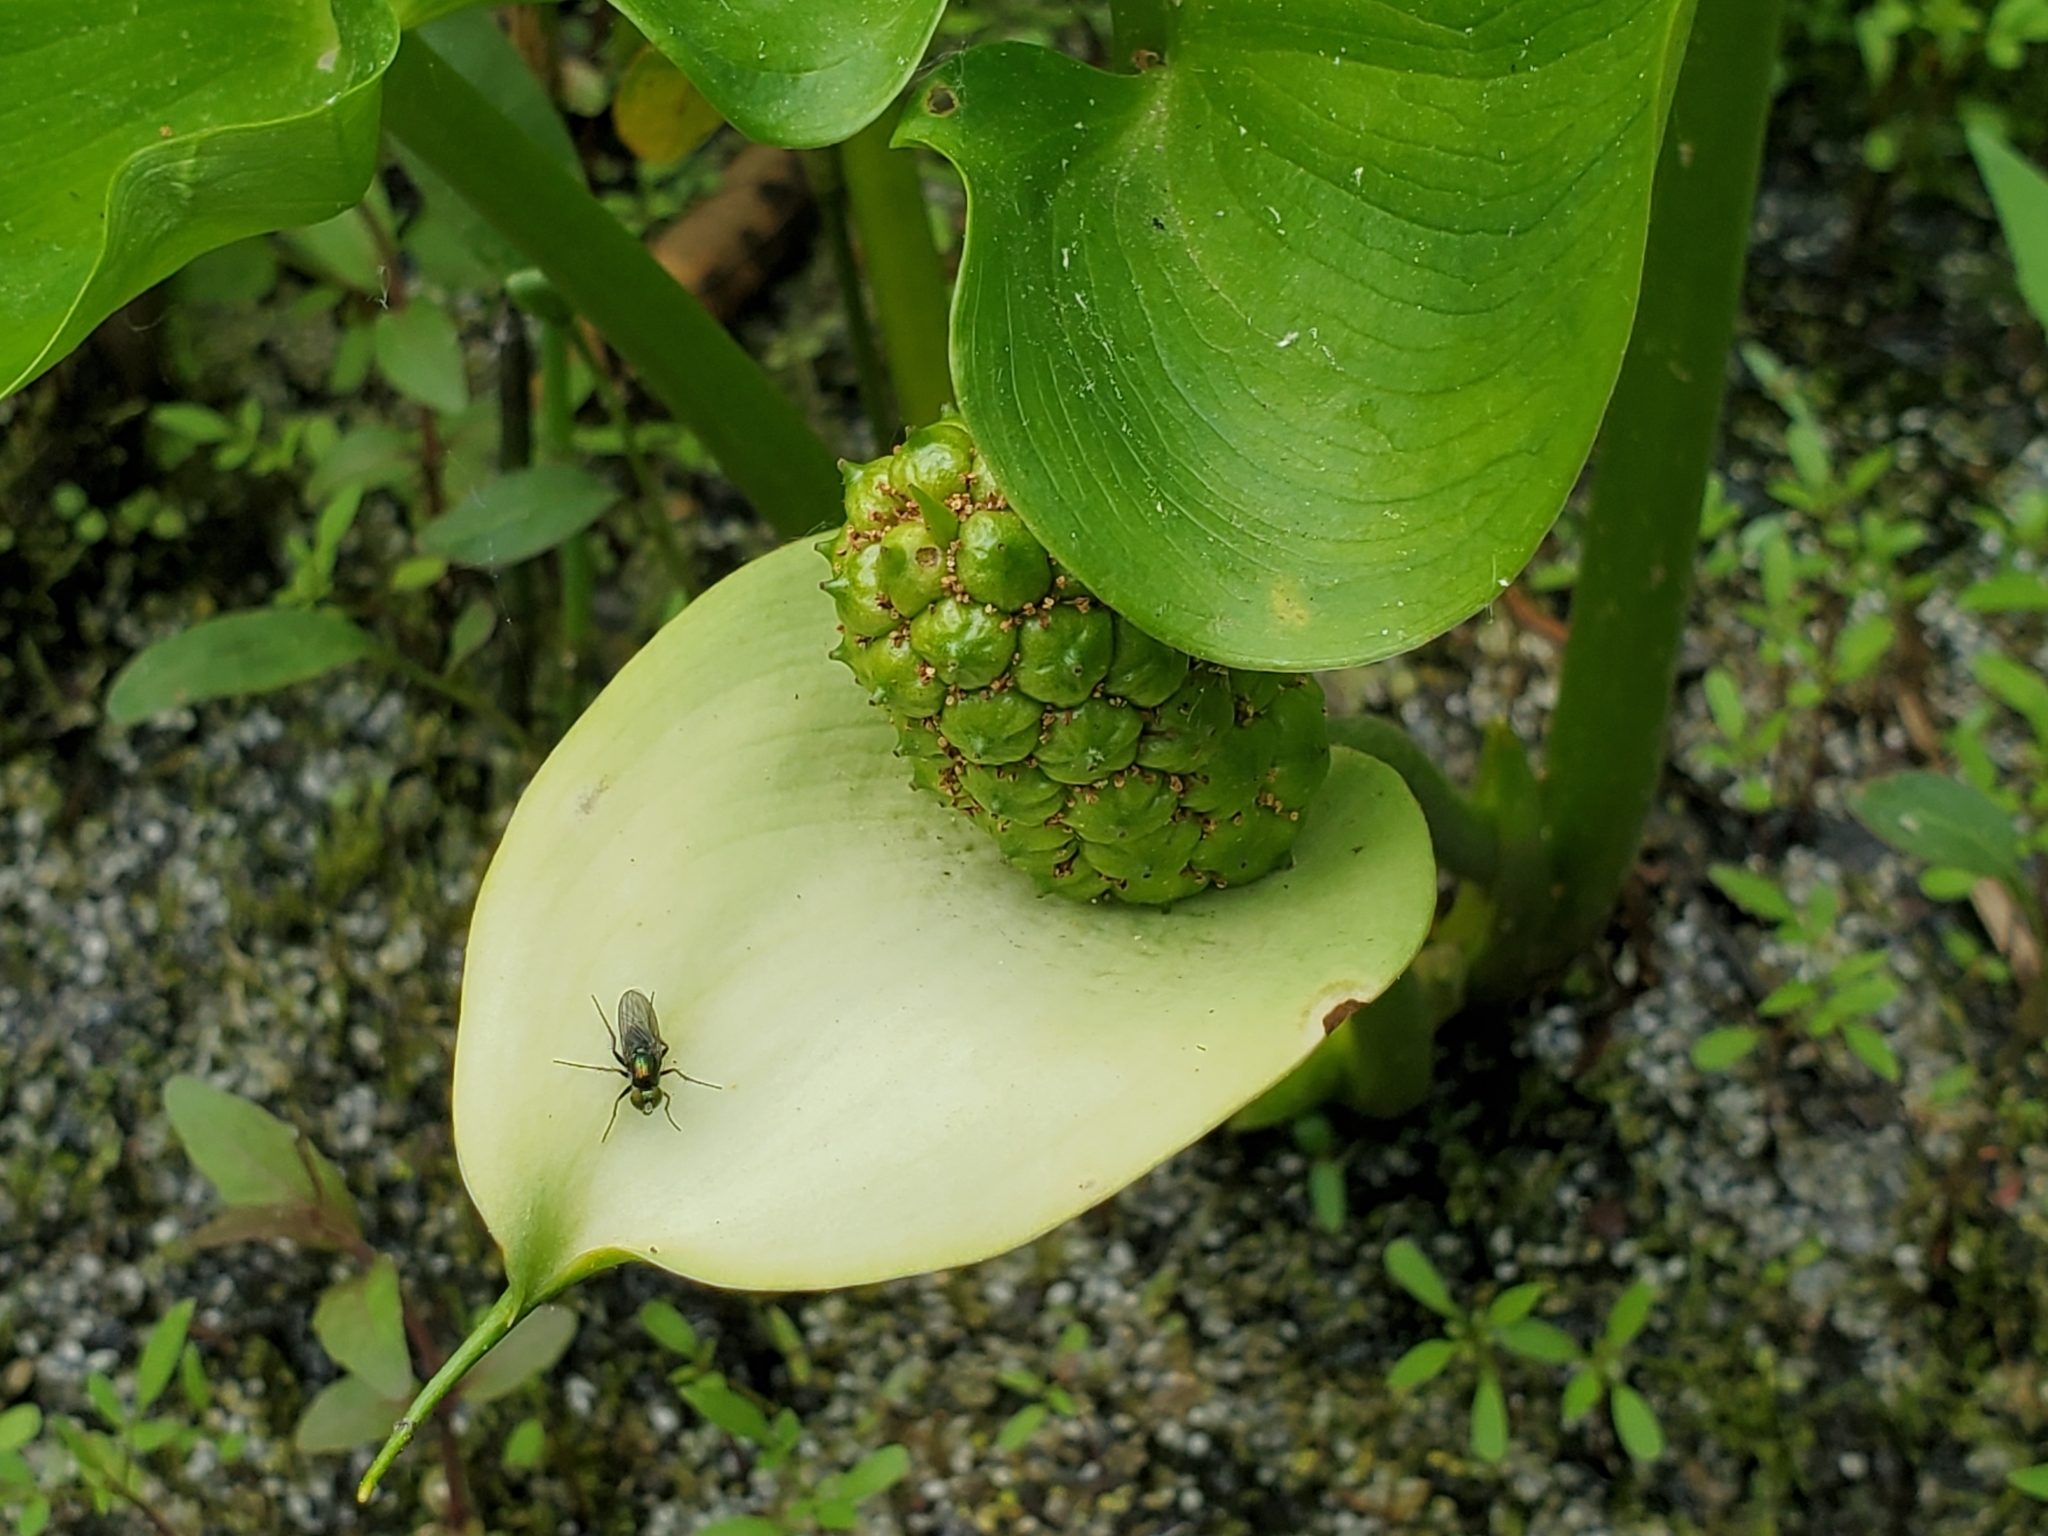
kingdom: Plantae
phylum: Tracheophyta
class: Liliopsida
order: Alismatales
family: Araceae
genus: Calla
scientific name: Calla palustris
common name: Bog arum
